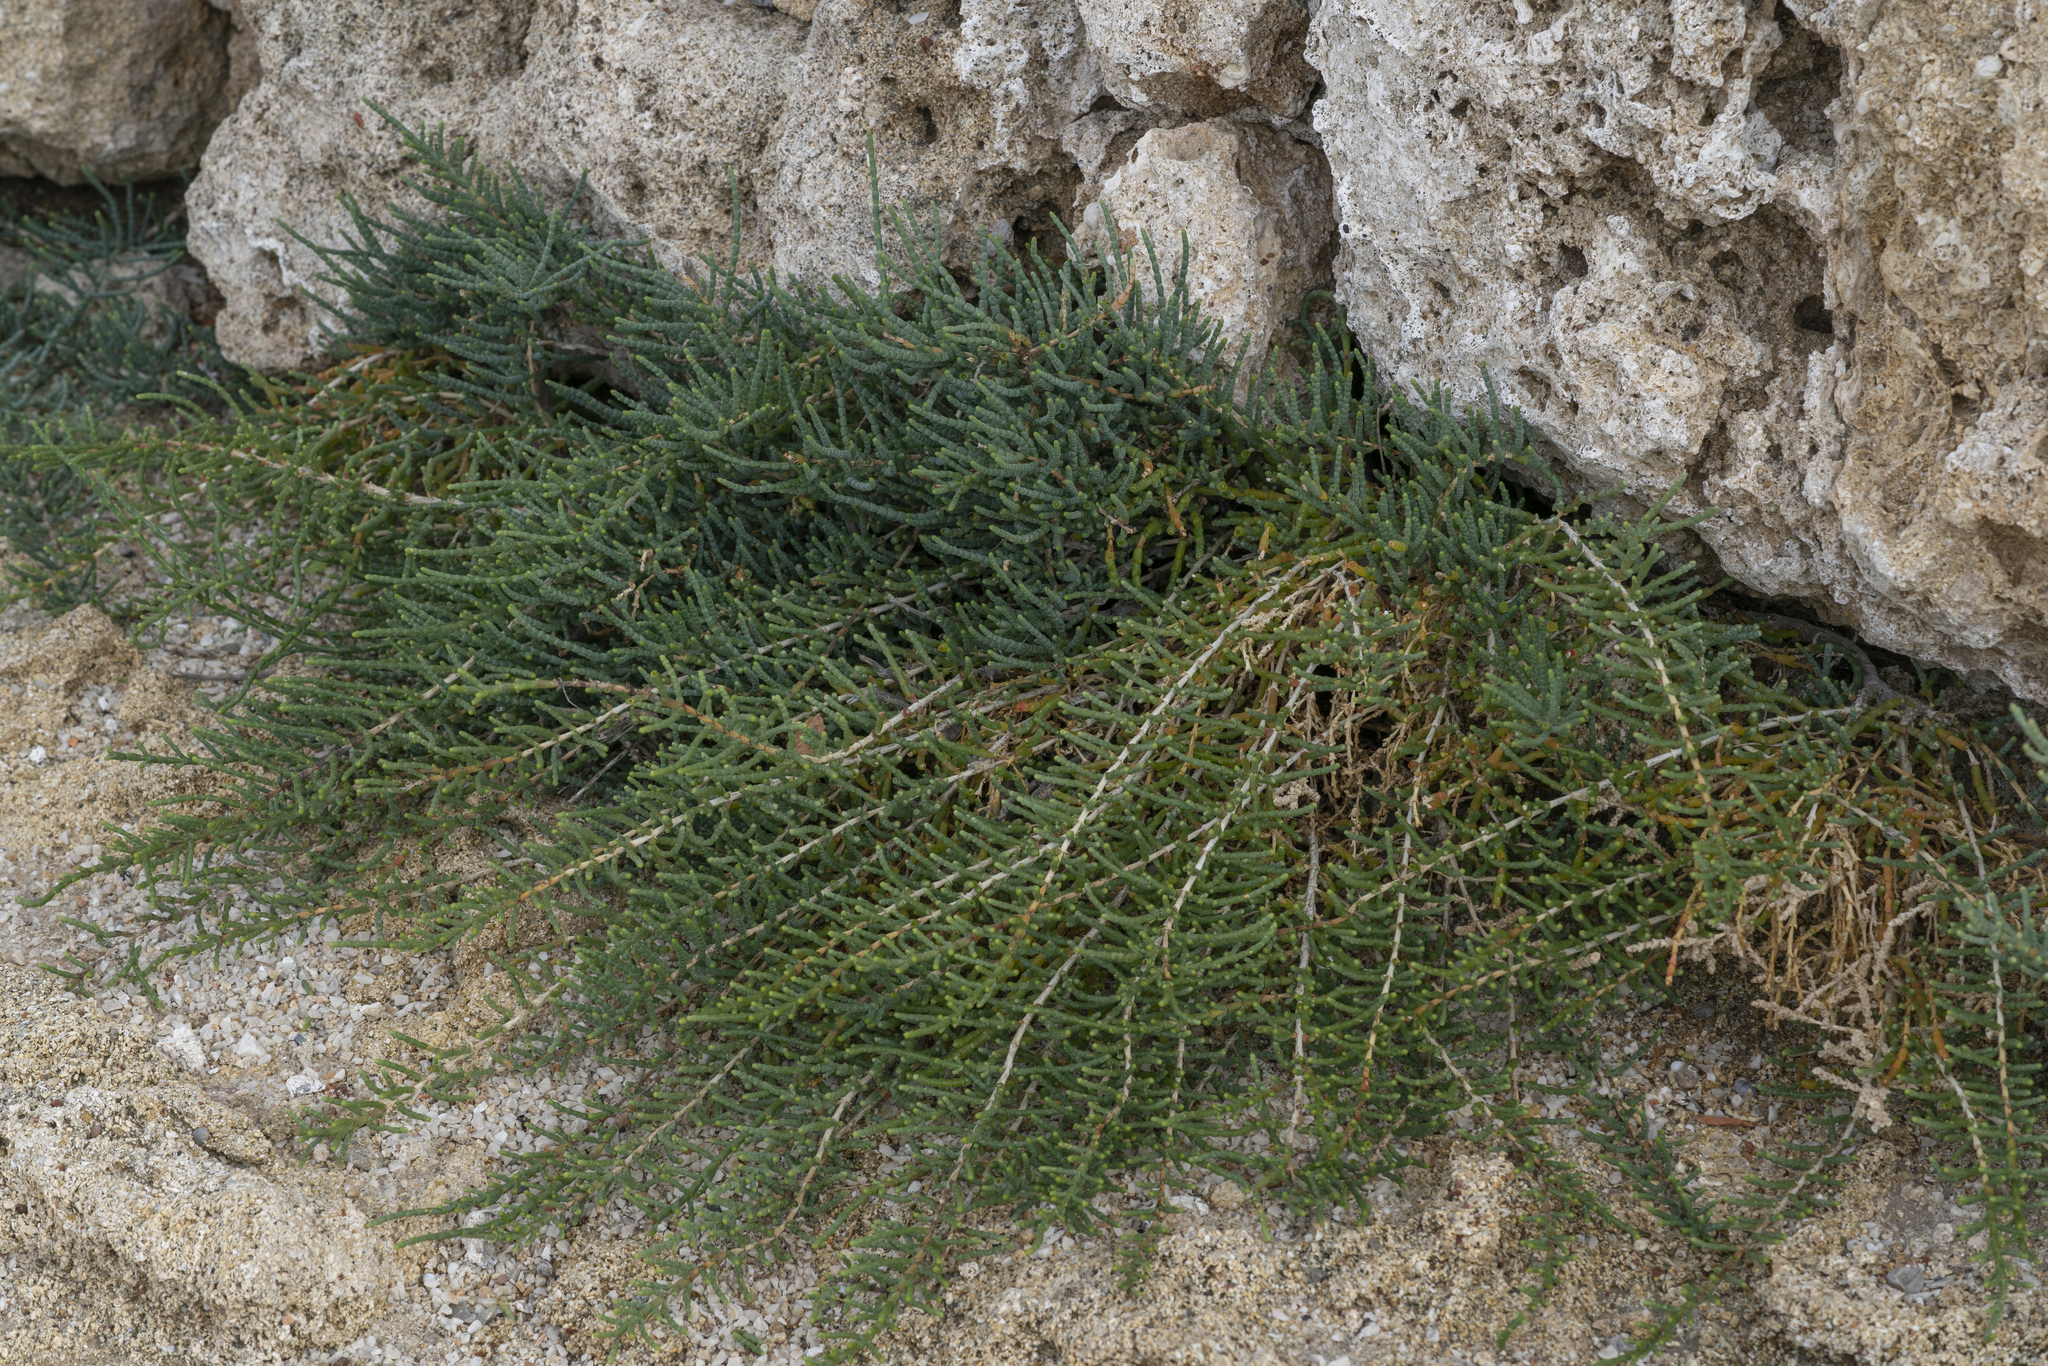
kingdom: Plantae
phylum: Tracheophyta
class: Magnoliopsida
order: Caryophyllales
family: Amaranthaceae
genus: Arthrocaulon
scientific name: Arthrocaulon macrostachyum
